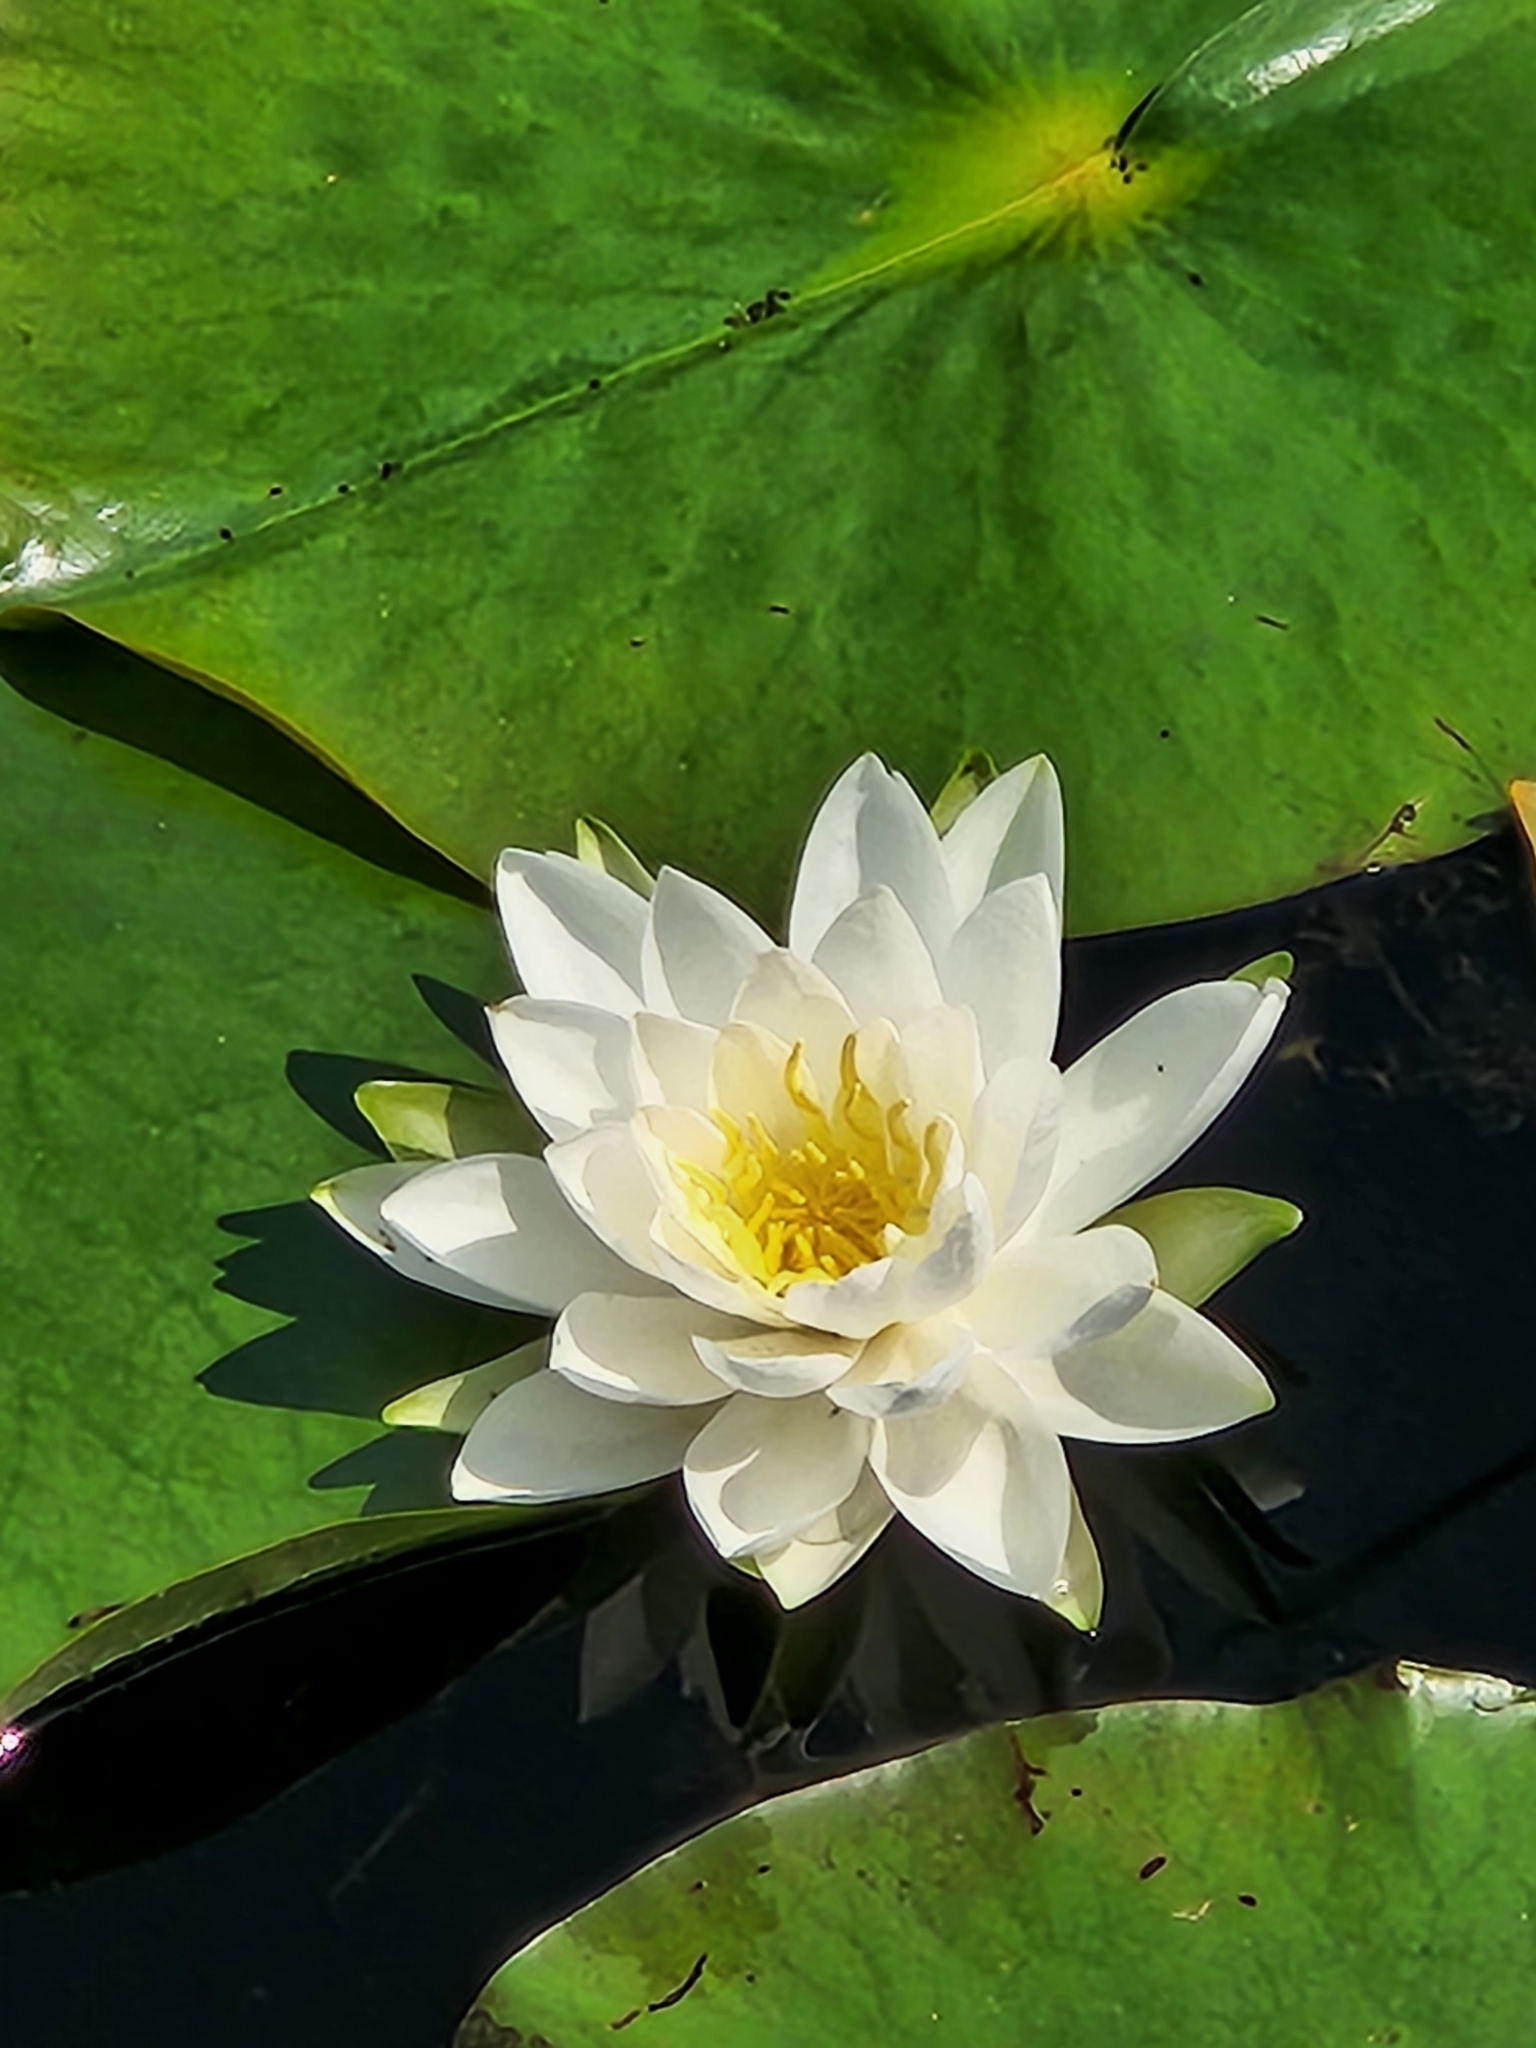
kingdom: Plantae
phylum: Tracheophyta
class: Magnoliopsida
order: Nymphaeales
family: Nymphaeaceae
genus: Nymphaea
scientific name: Nymphaea odorata
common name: Fragrant water-lily
